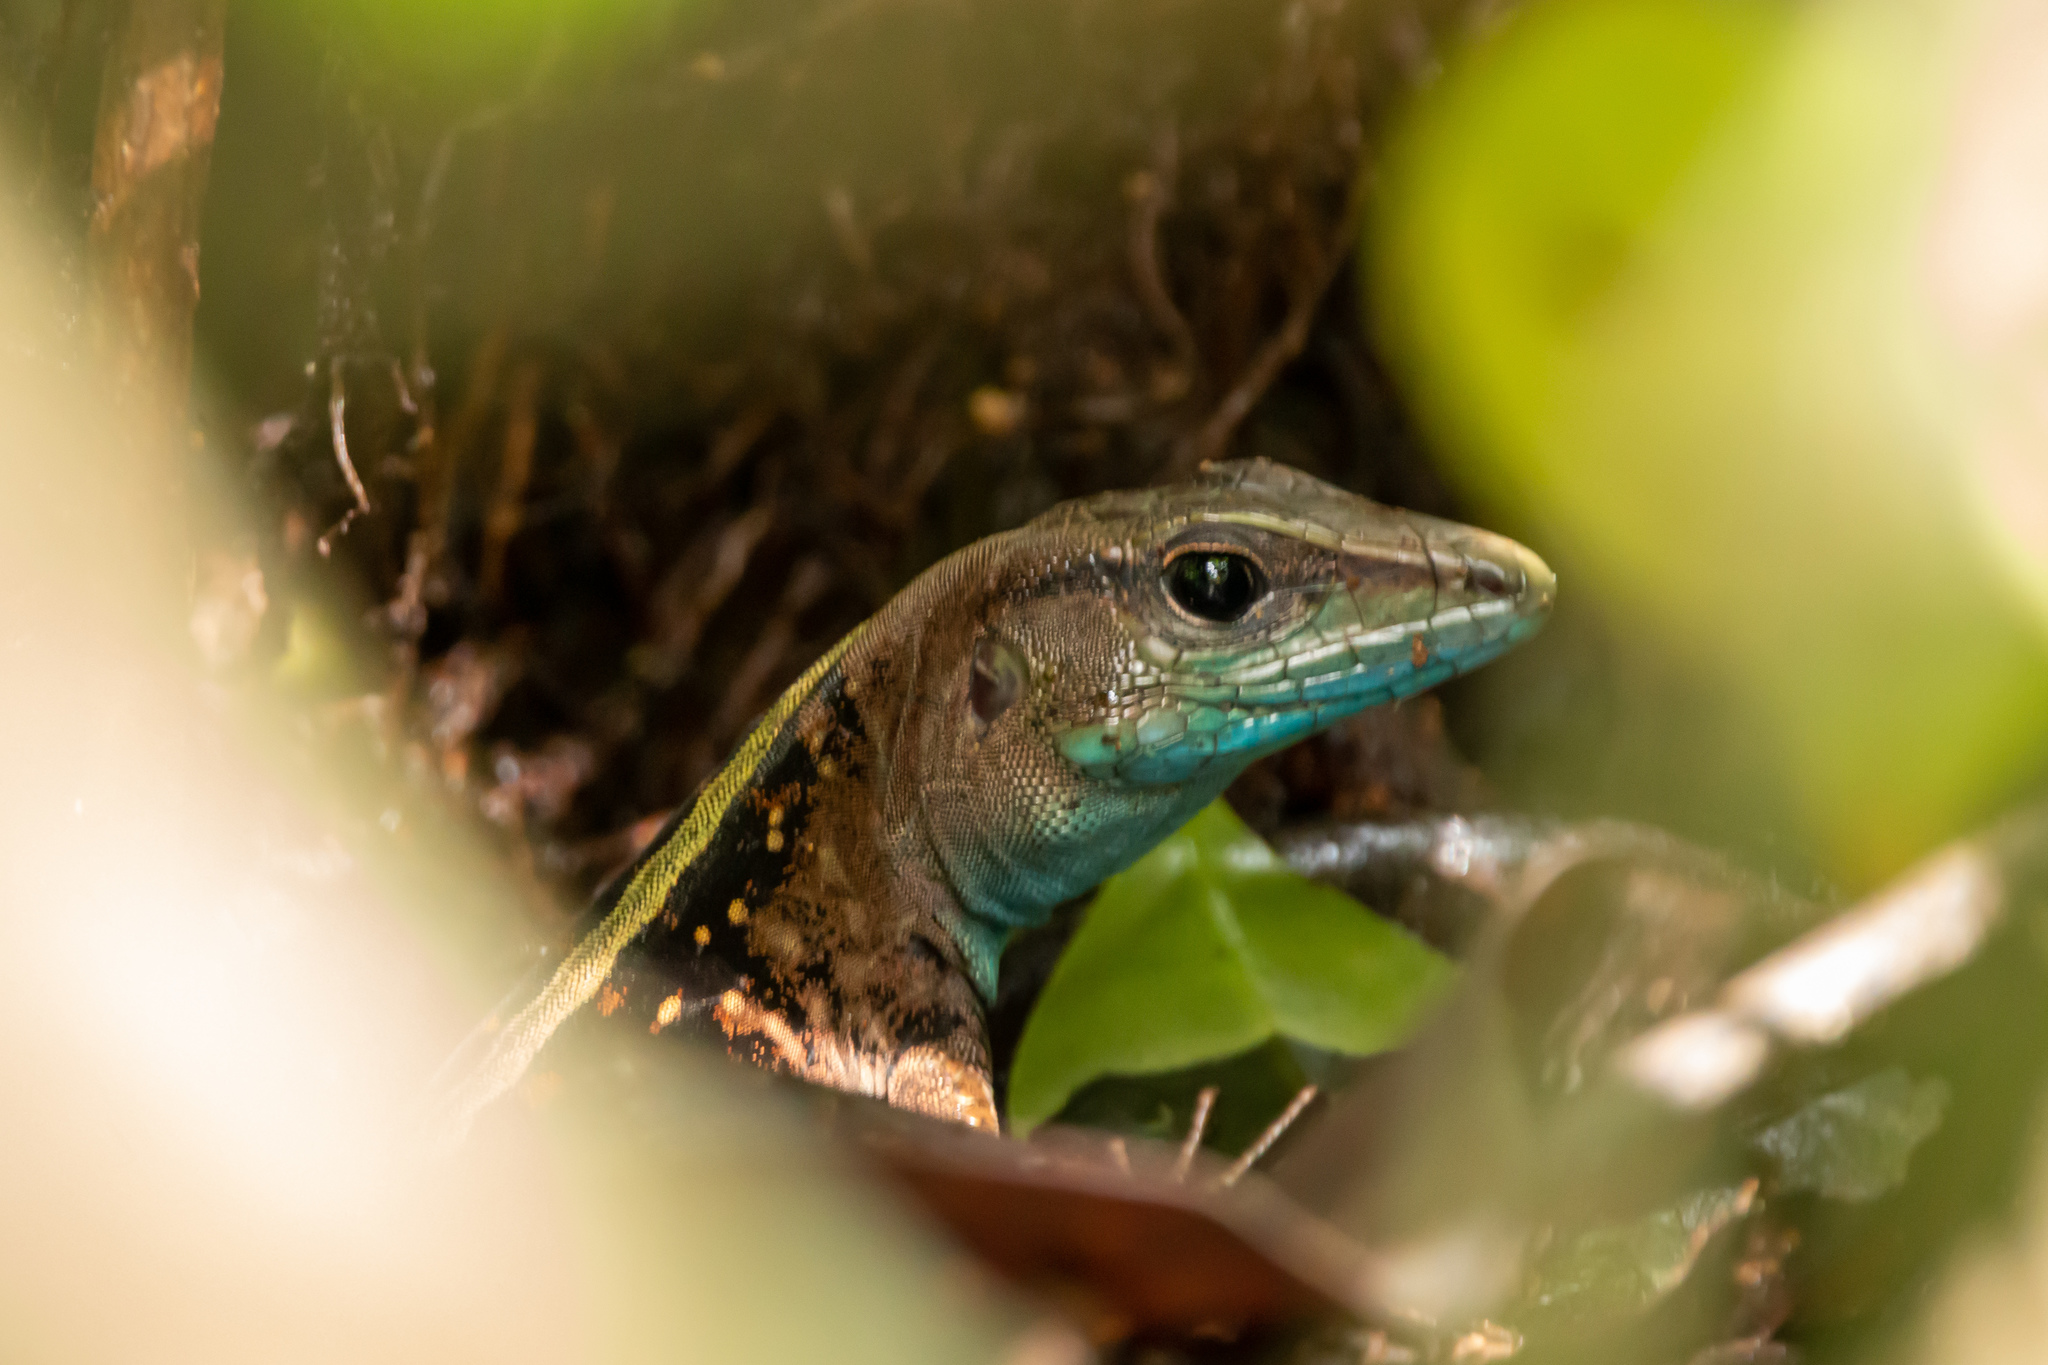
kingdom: Animalia
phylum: Chordata
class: Squamata
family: Teiidae
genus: Holcosus
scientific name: Holcosus festivus
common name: Middle american ameiva
